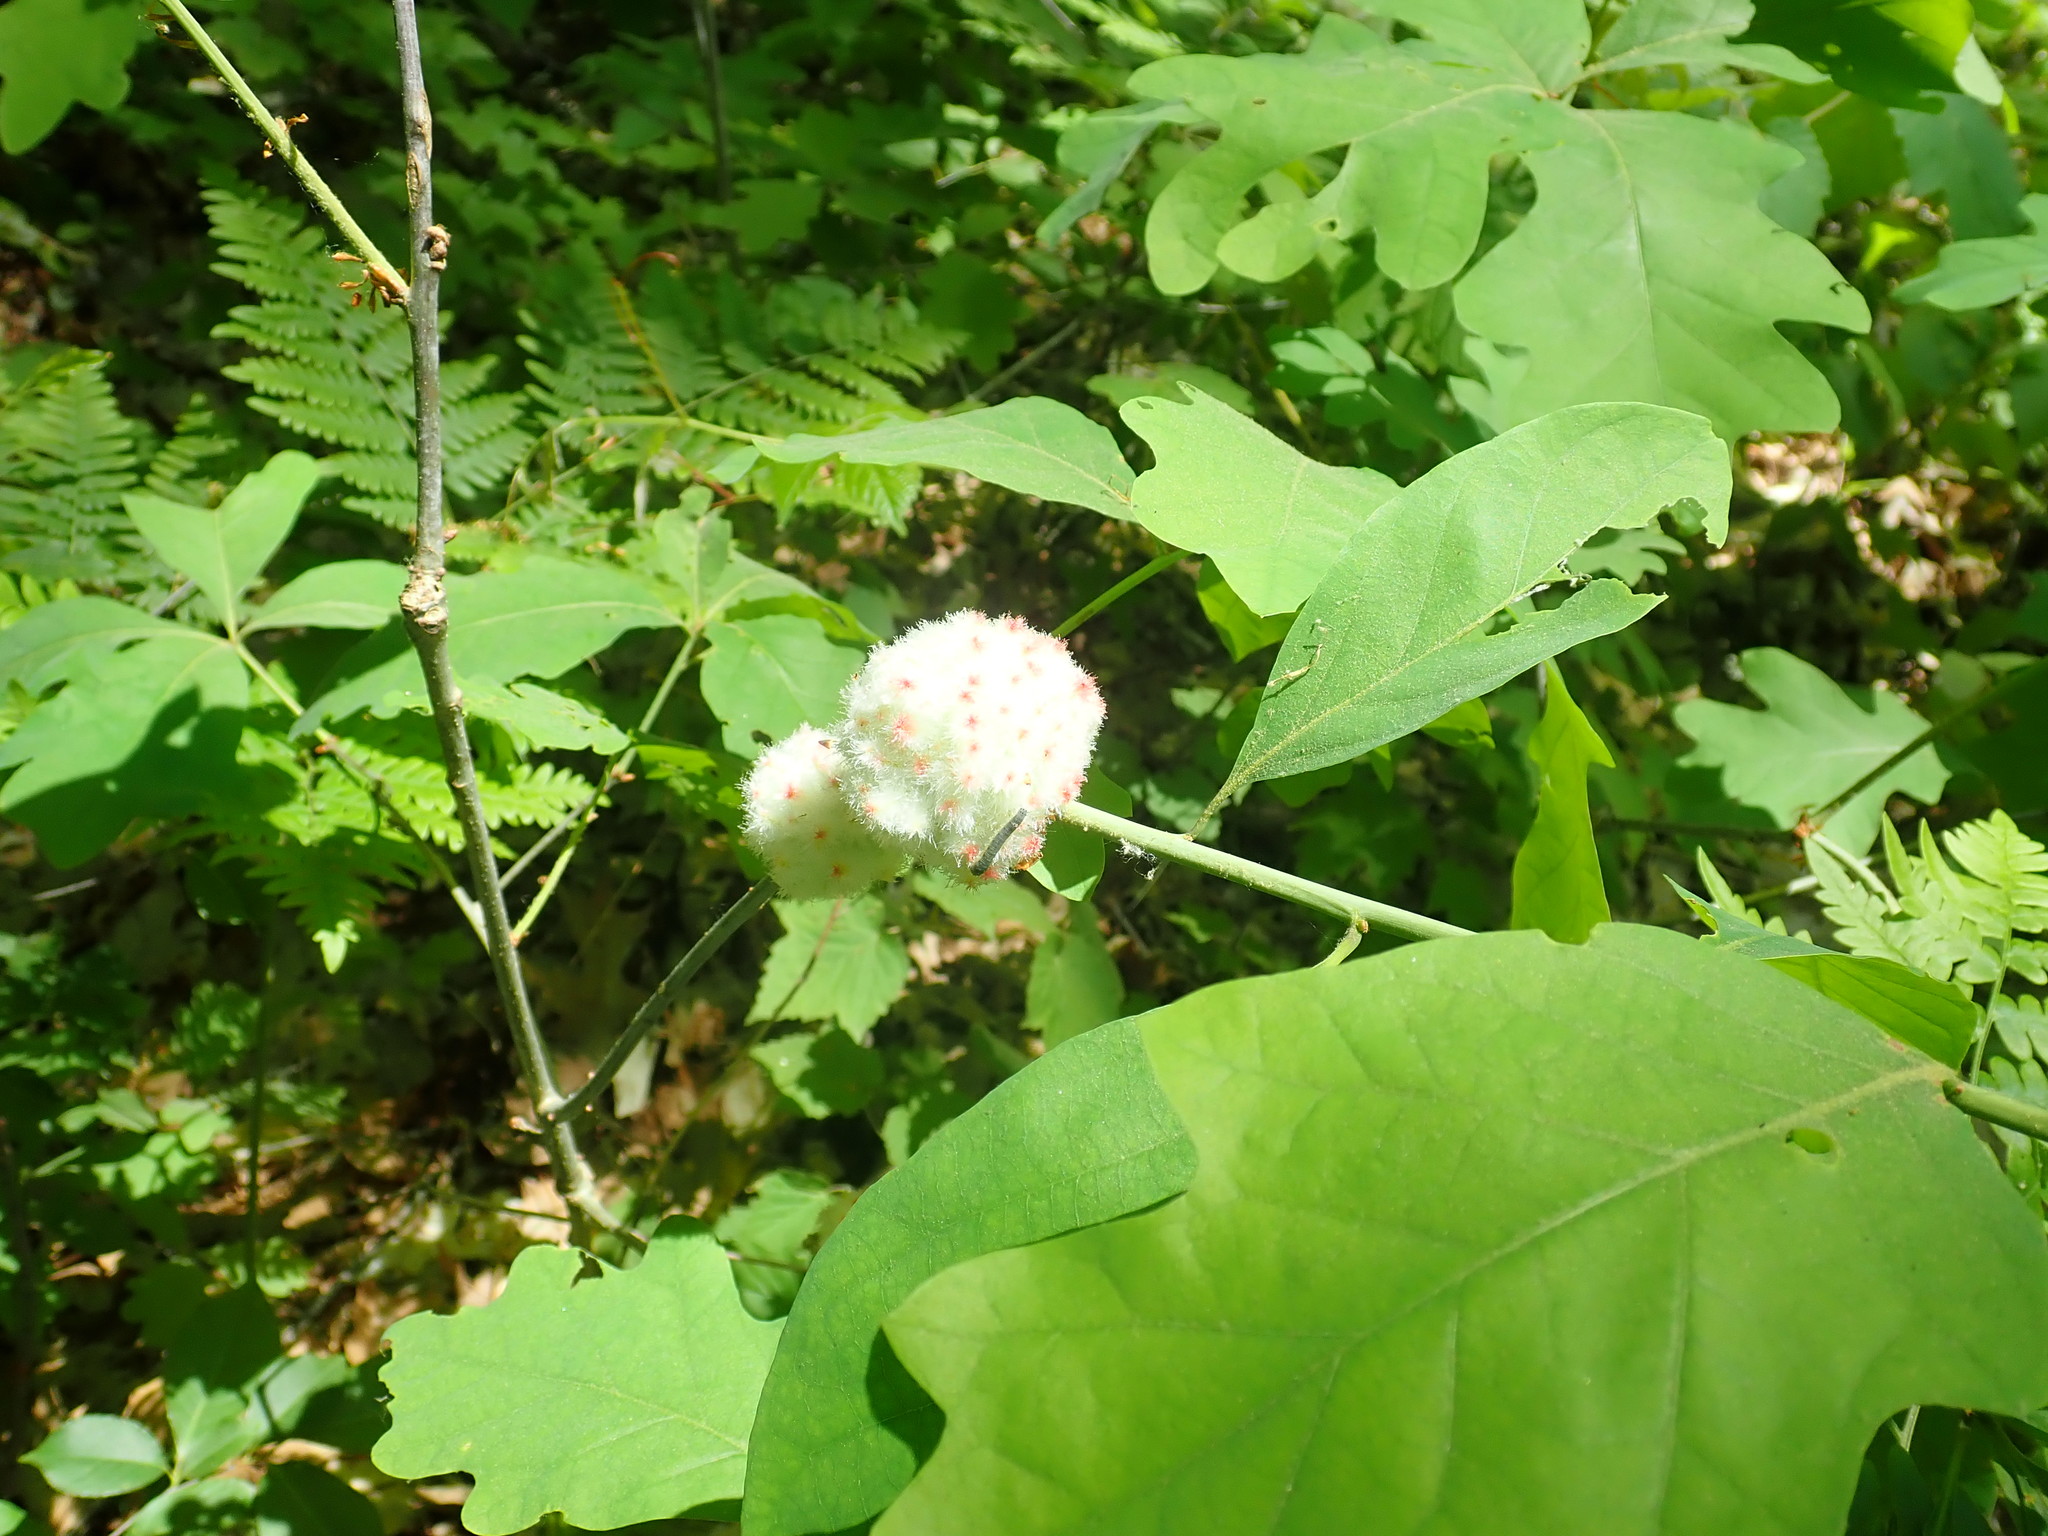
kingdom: Animalia
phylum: Arthropoda
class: Insecta
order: Hymenoptera
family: Cynipidae
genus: Callirhytis
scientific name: Callirhytis
